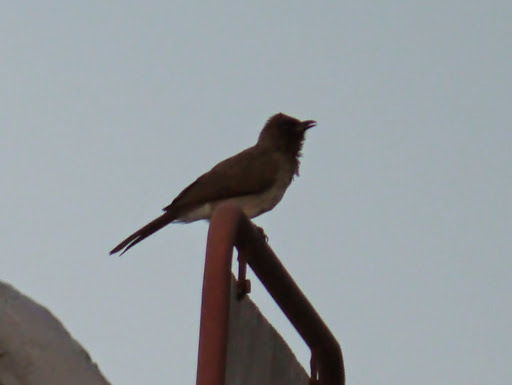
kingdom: Animalia
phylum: Chordata
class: Aves
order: Passeriformes
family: Pycnonotidae
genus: Pycnonotus
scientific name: Pycnonotus barbatus
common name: Common bulbul
